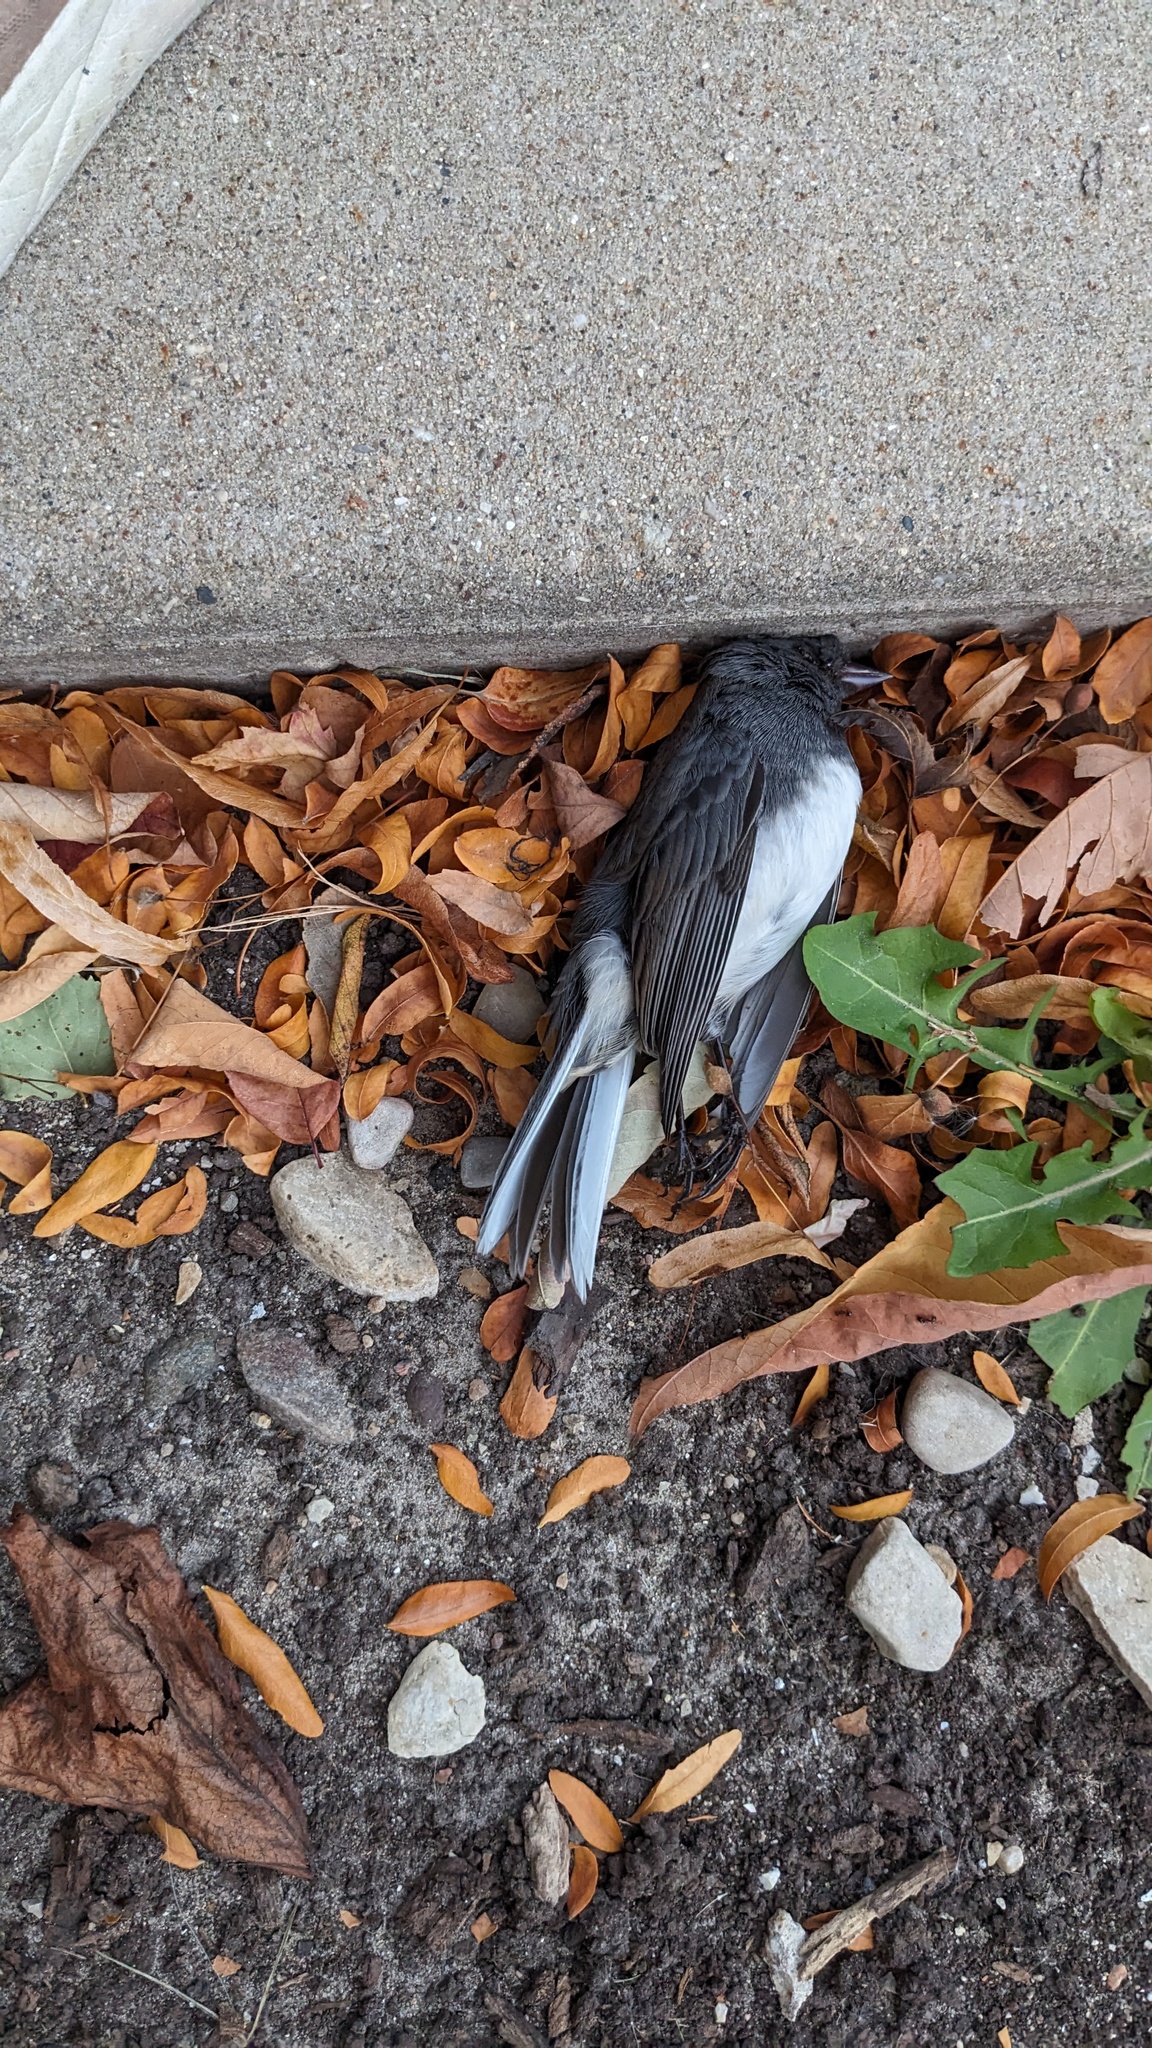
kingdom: Animalia
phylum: Chordata
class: Aves
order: Passeriformes
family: Passerellidae
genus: Junco
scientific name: Junco hyemalis
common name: Dark-eyed junco
